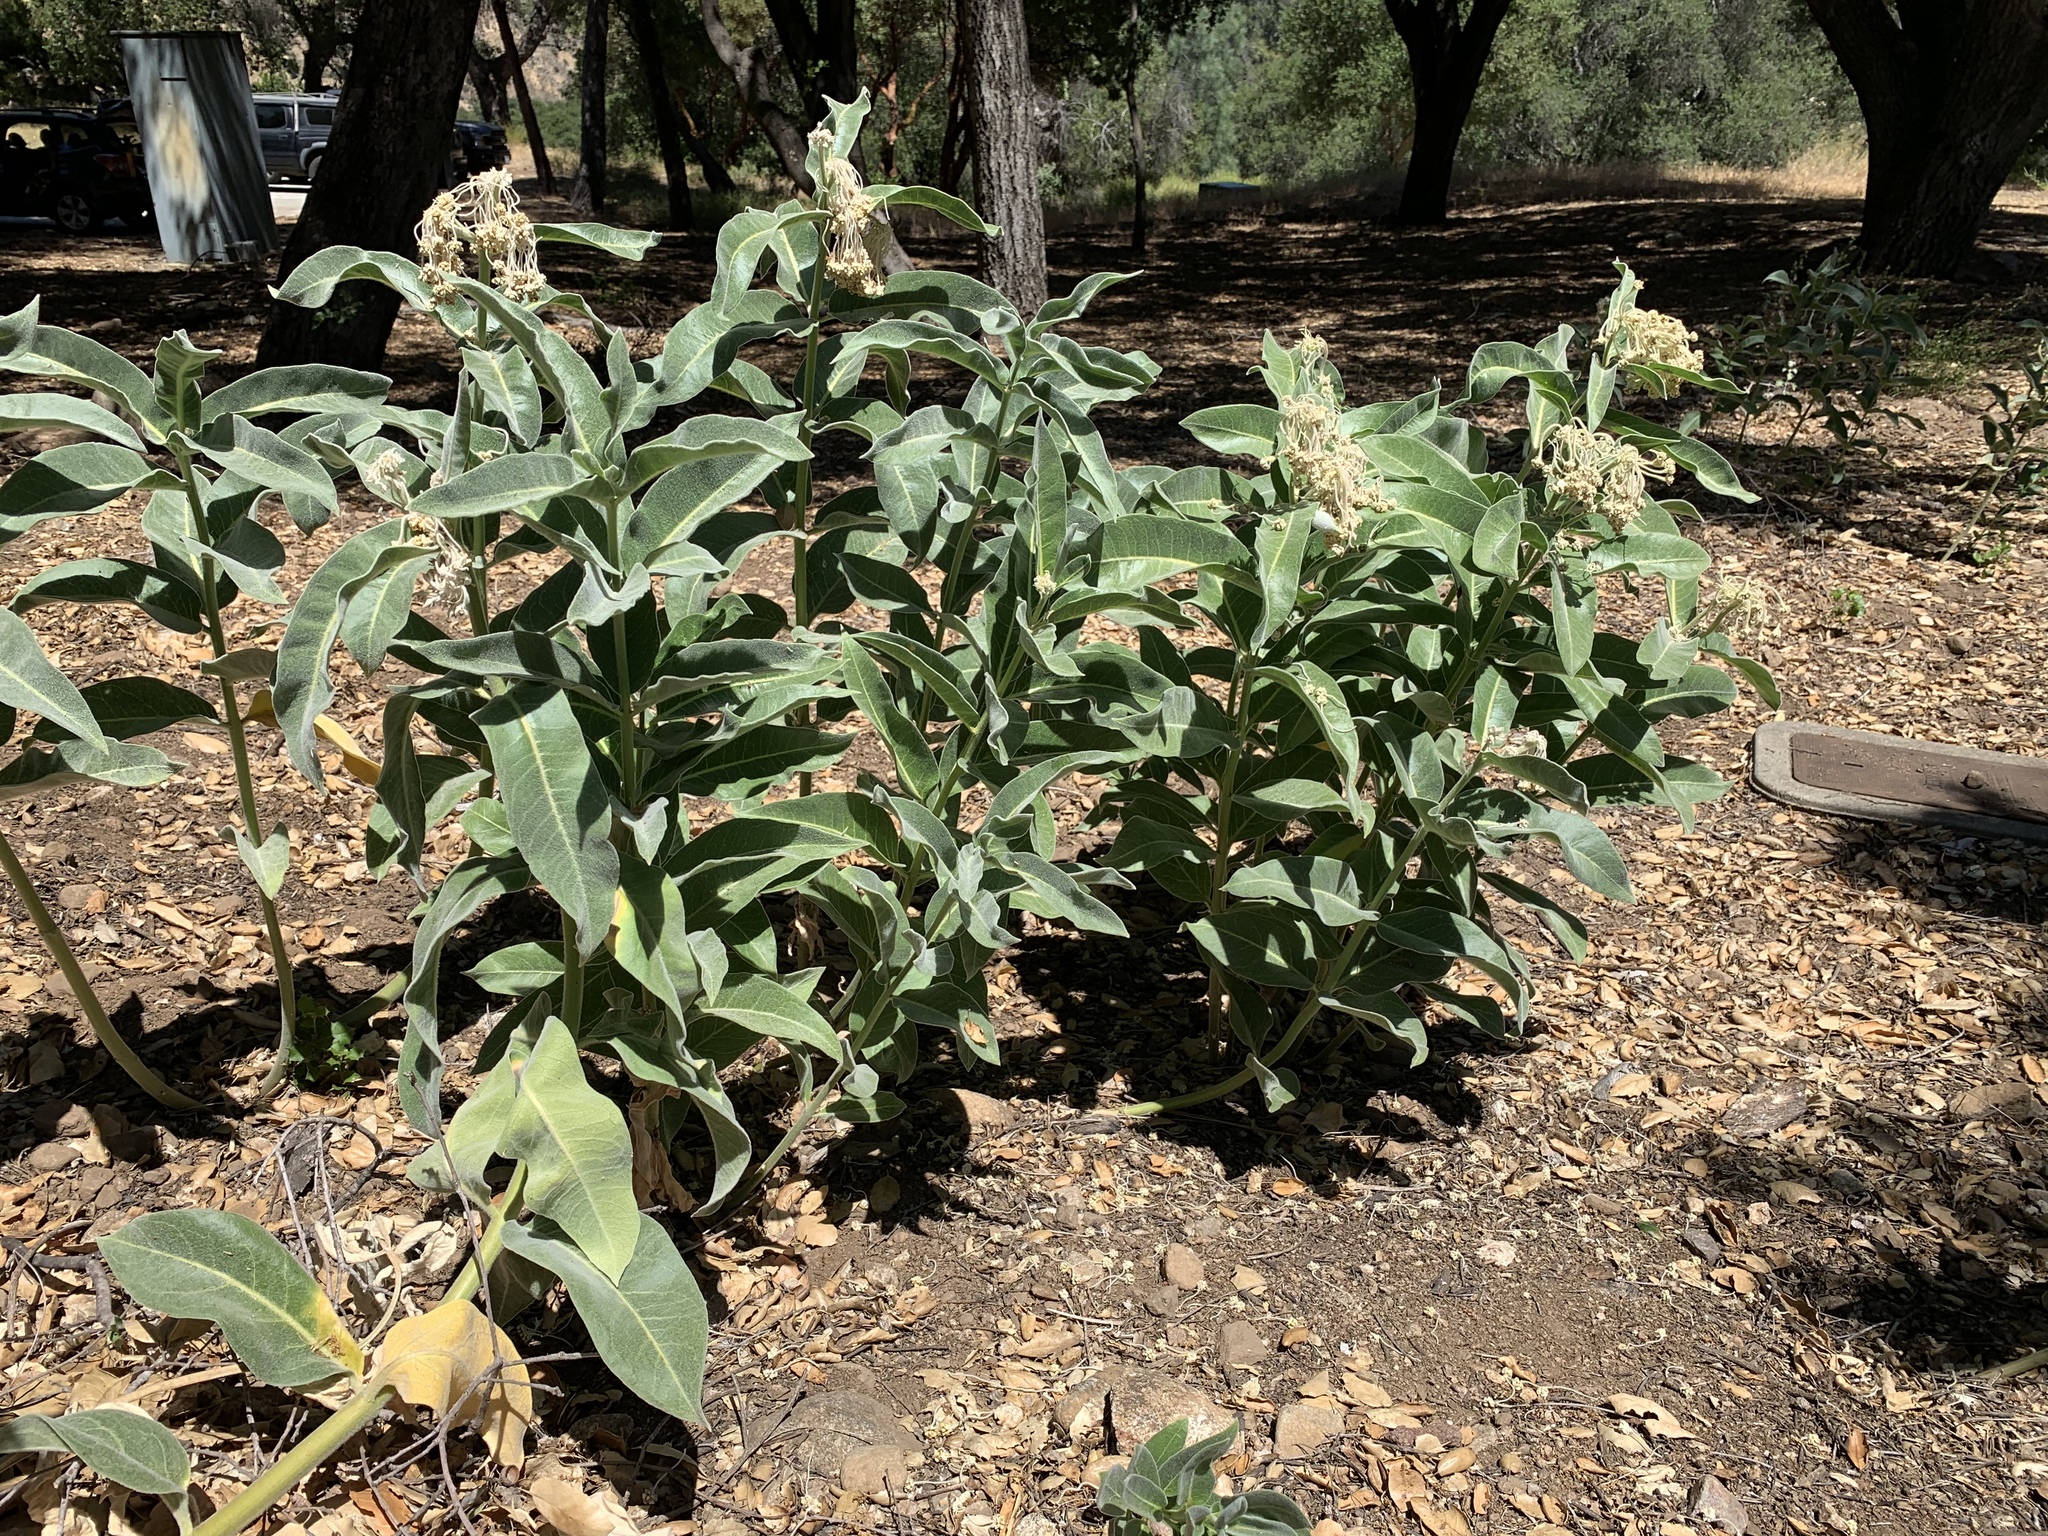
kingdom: Plantae
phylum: Tracheophyta
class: Magnoliopsida
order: Gentianales
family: Apocynaceae
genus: Asclepias
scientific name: Asclepias eriocarpa
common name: Indian milkweed
